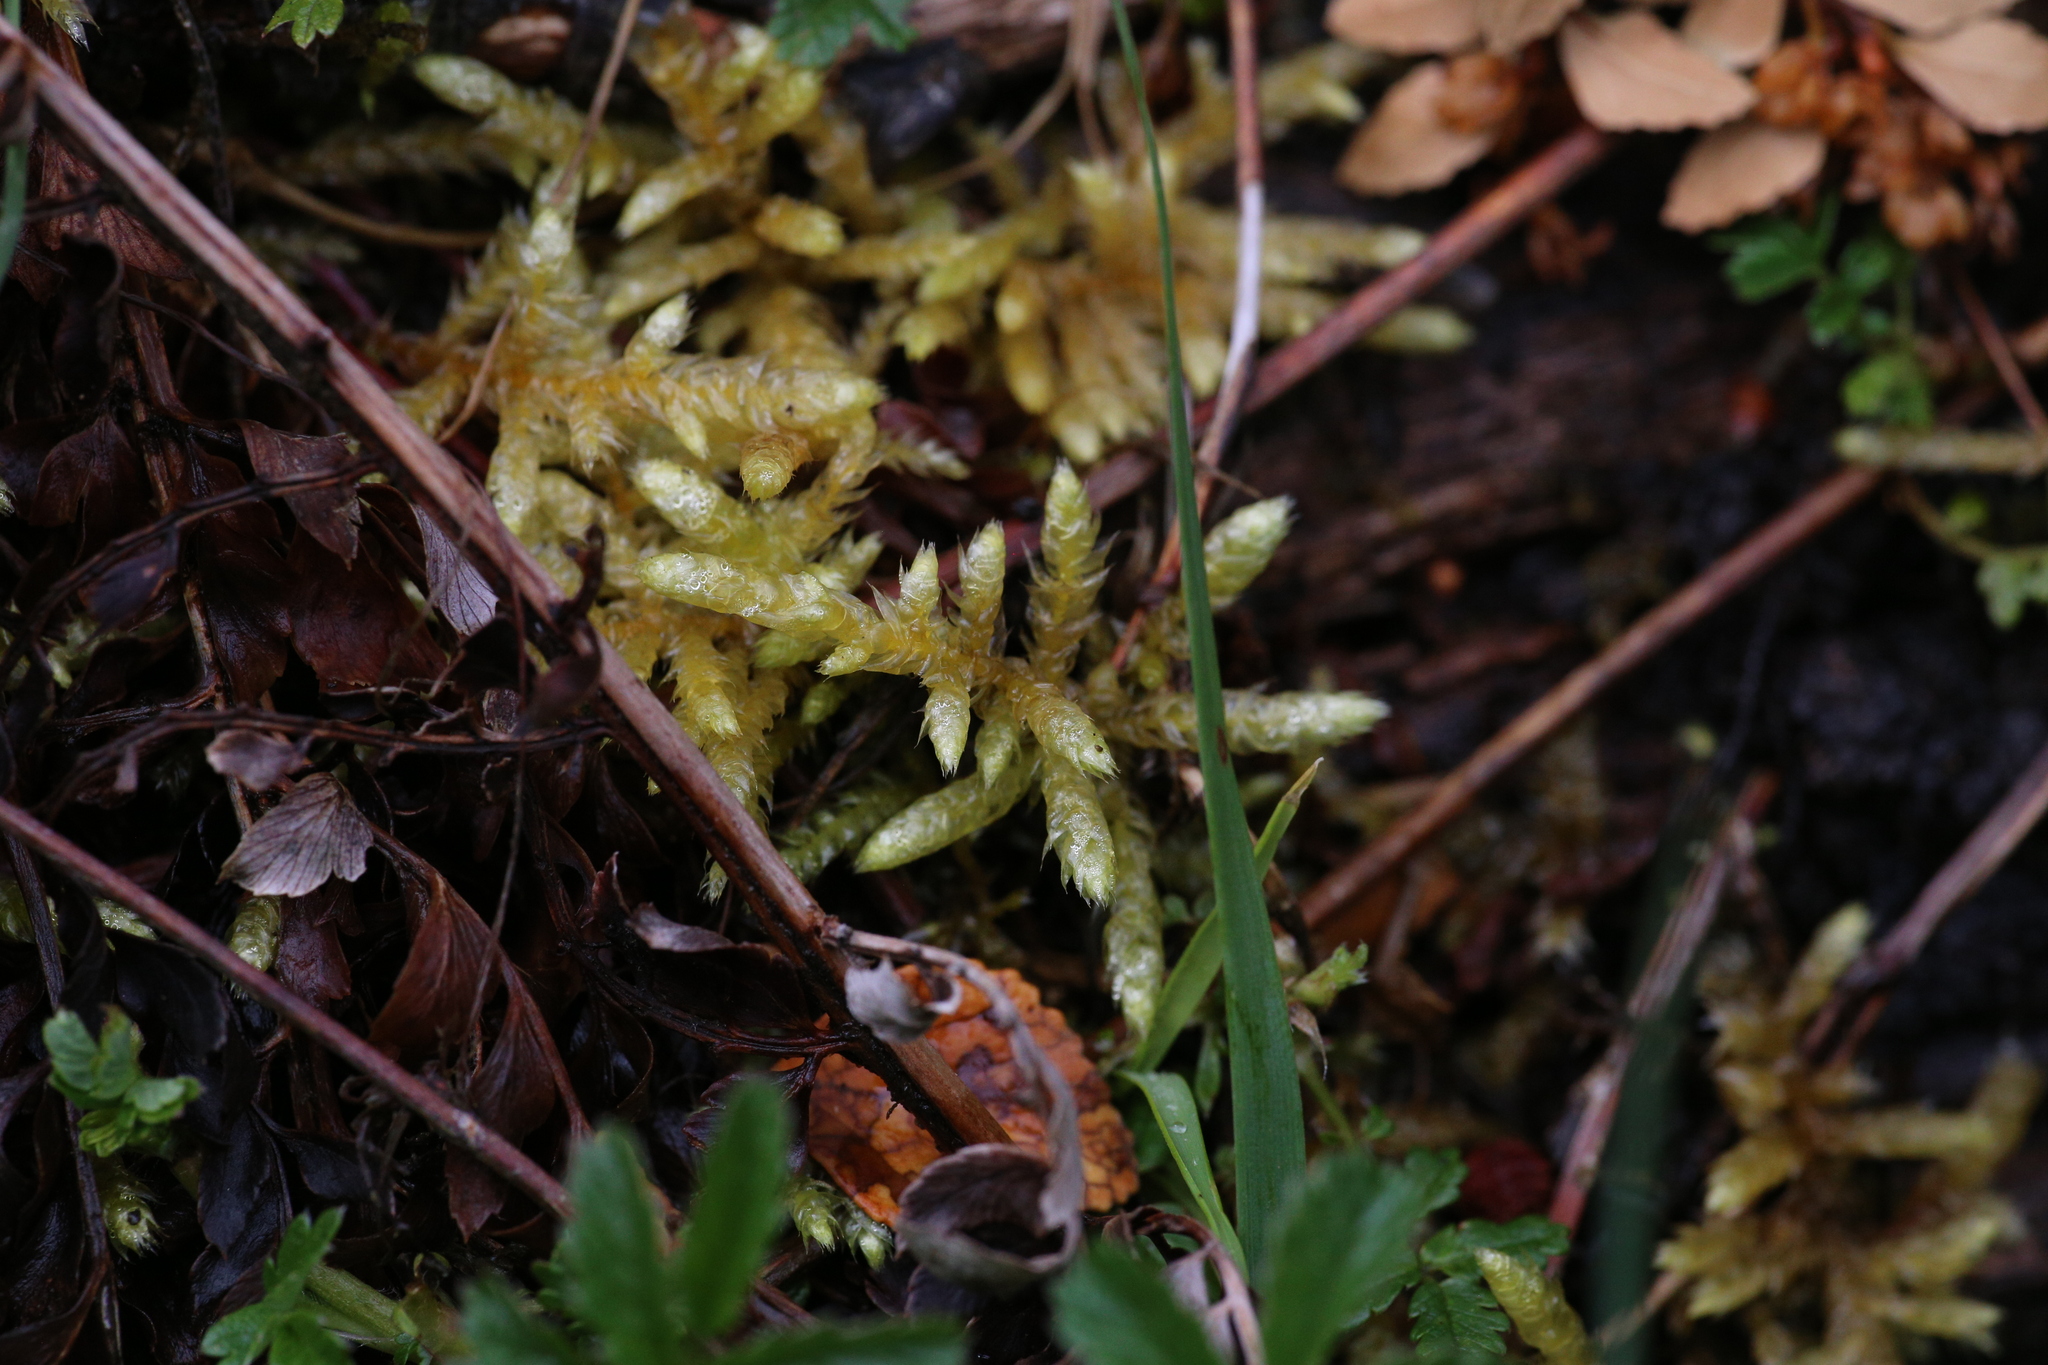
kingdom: Plantae
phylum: Bryophyta
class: Bryopsida
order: Hypnales
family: Brachytheciaceae
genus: Pseudoscleropodium
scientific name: Pseudoscleropodium purum
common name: Neat feather-moss
